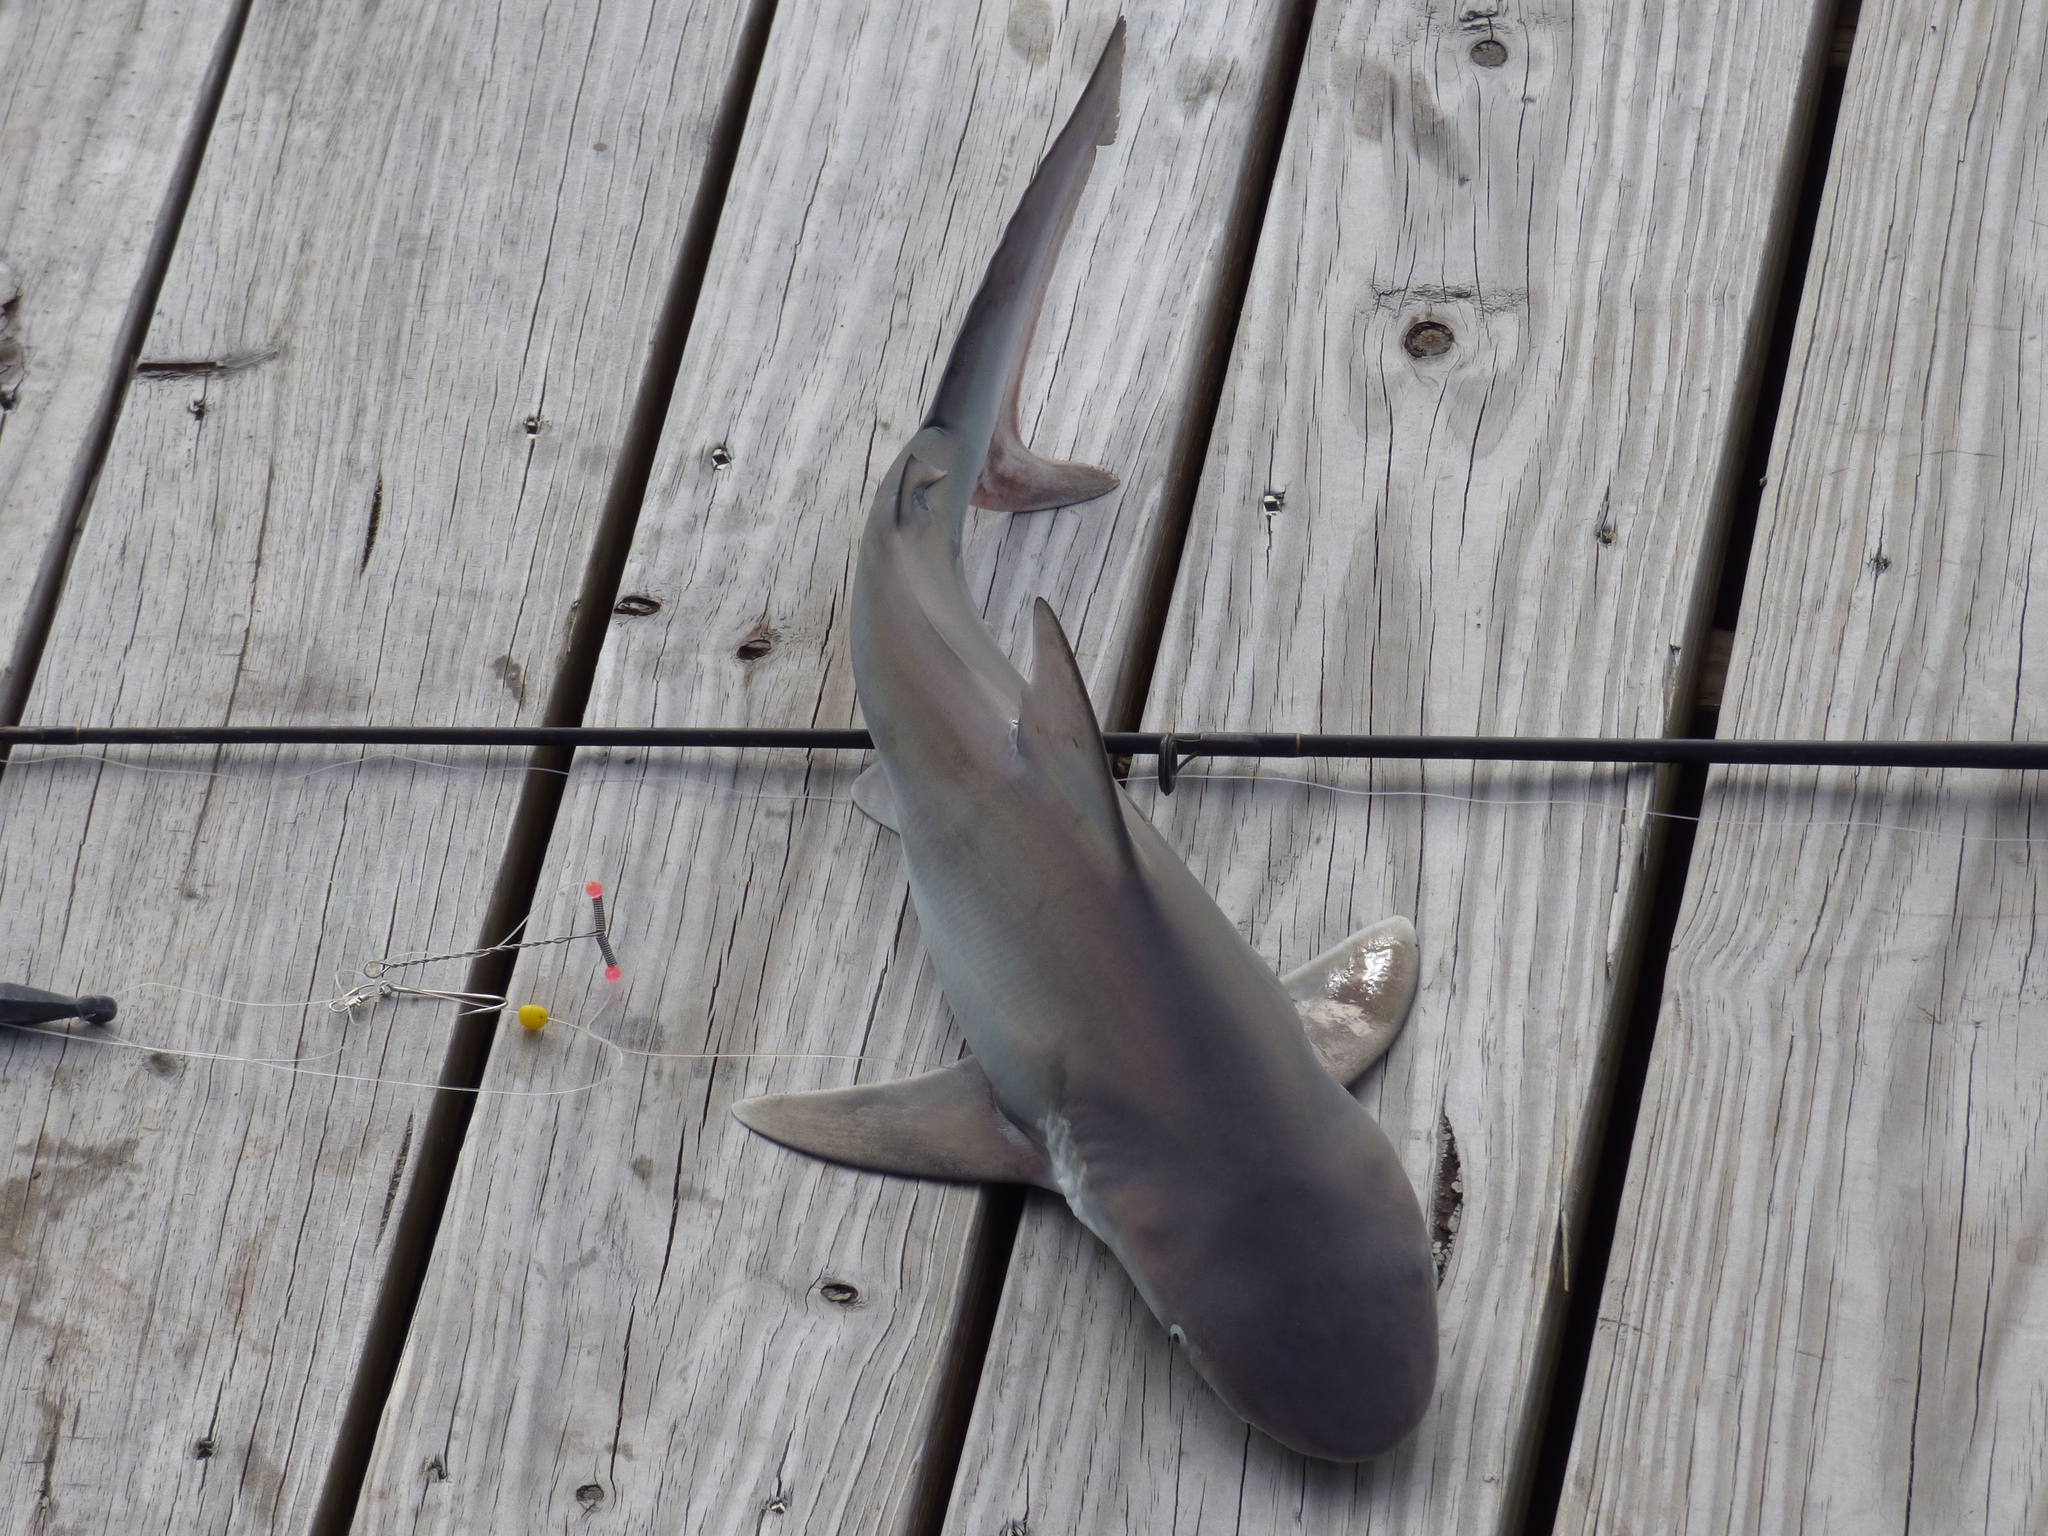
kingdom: Animalia
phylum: Chordata
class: Elasmobranchii
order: Carcharhiniformes
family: Carcharhinidae
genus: Carcharhinus
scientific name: Carcharhinus plumbeus
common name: Sandbar shark
